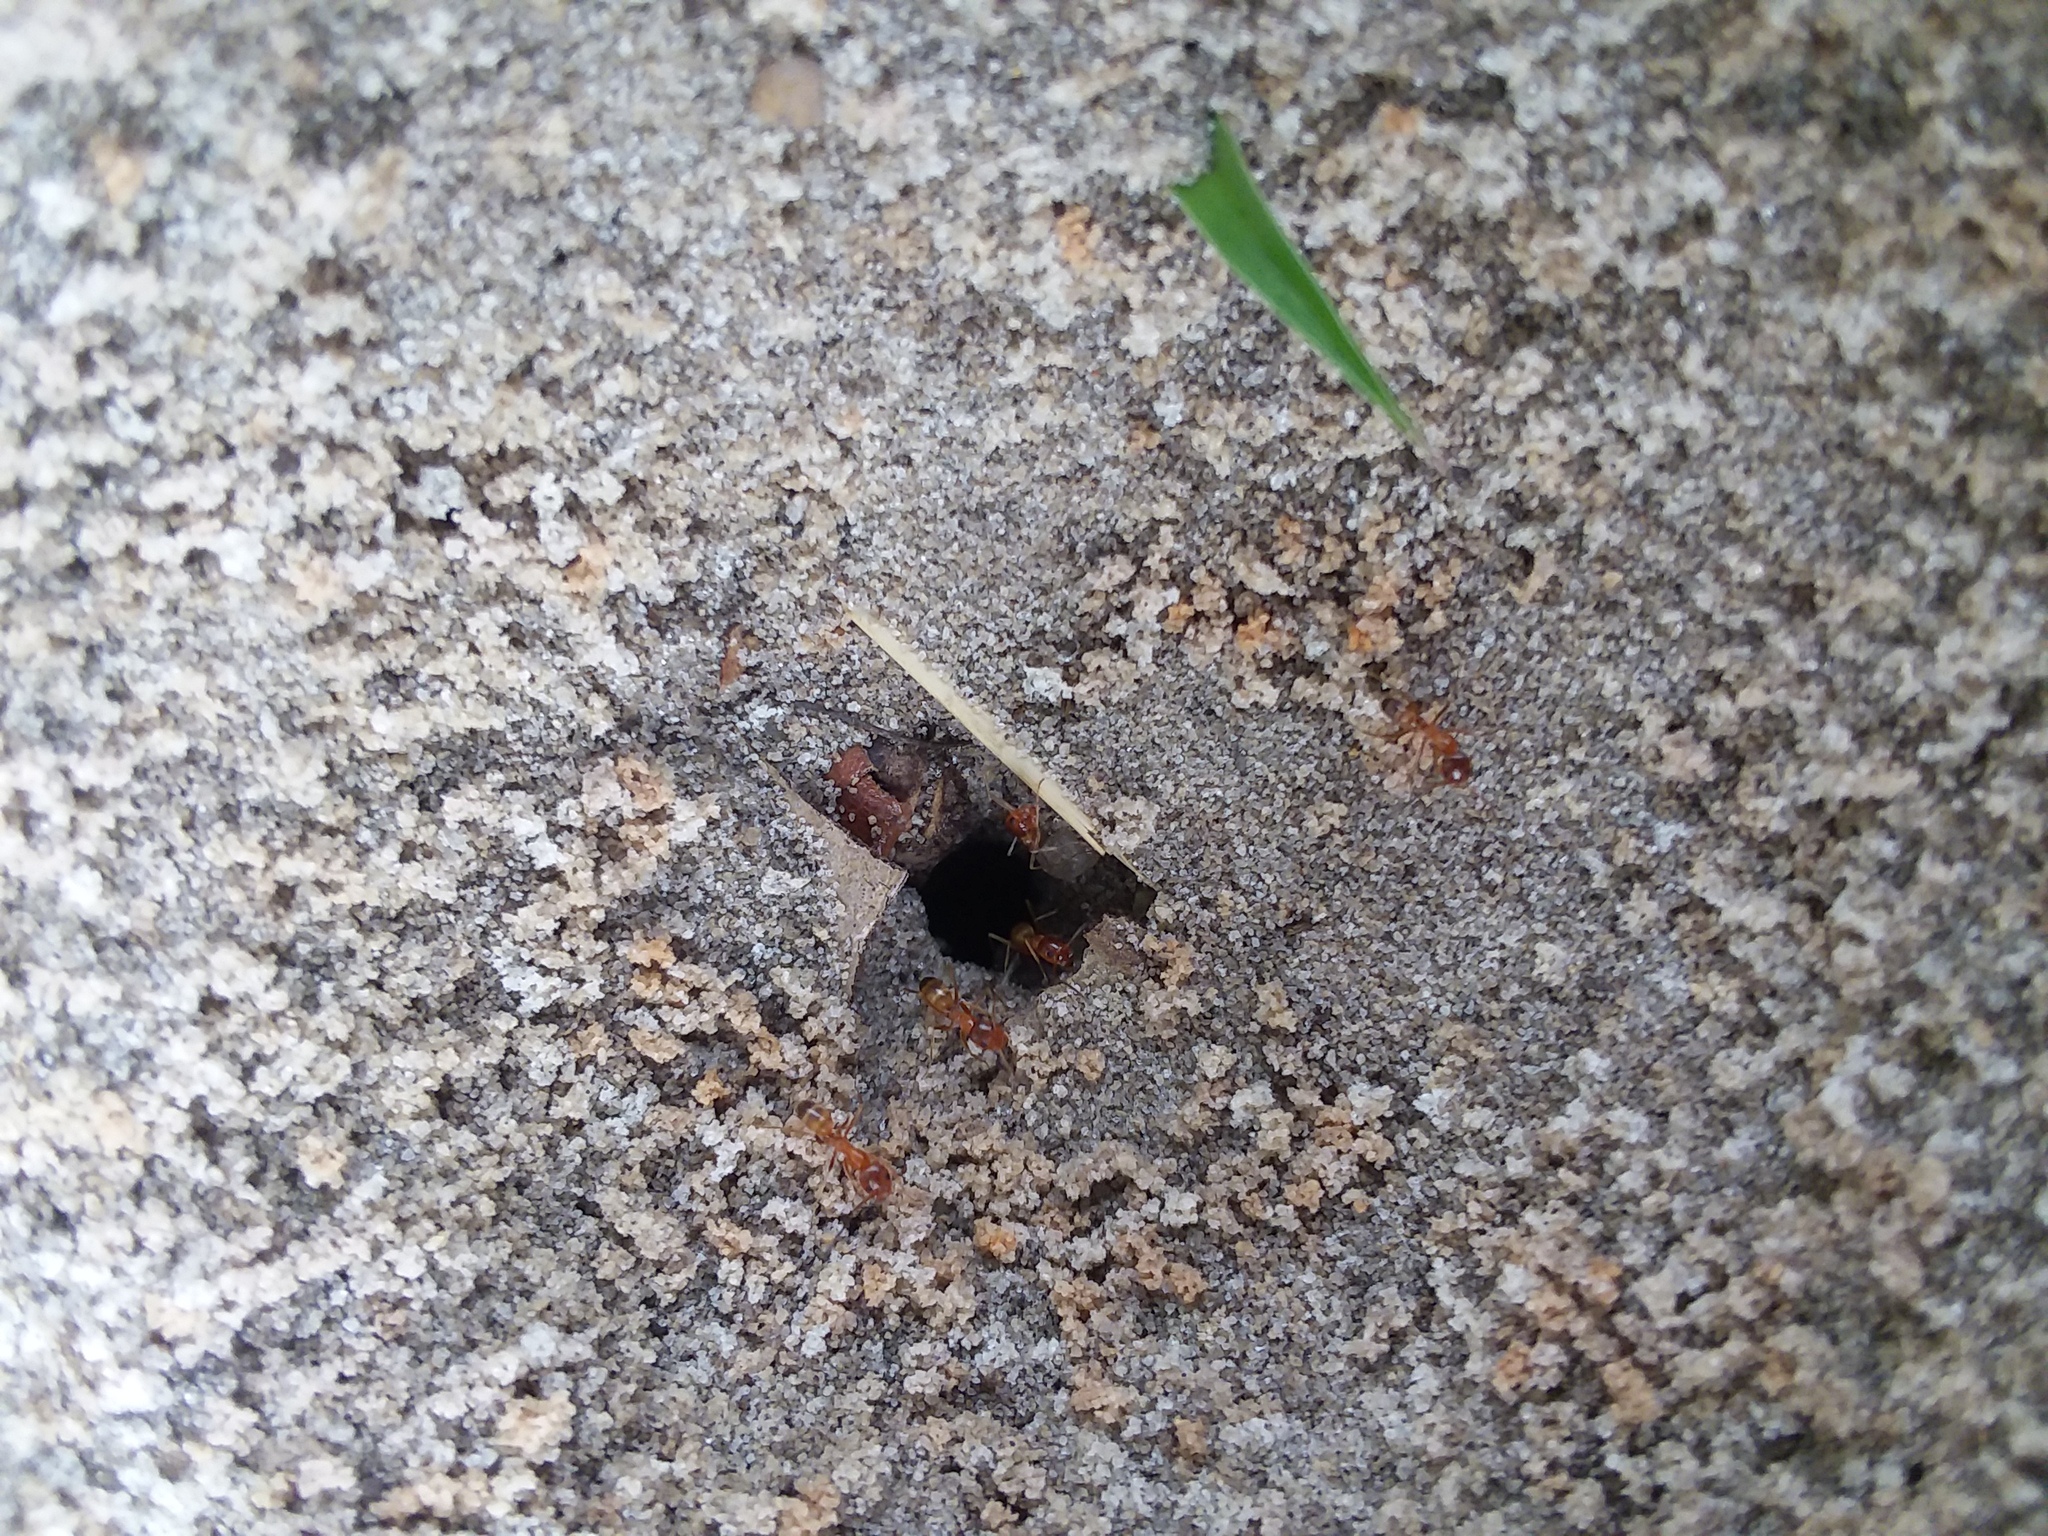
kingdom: Animalia
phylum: Arthropoda
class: Insecta
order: Hymenoptera
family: Formicidae
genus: Dorymyrmex
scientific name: Dorymyrmex bureni
